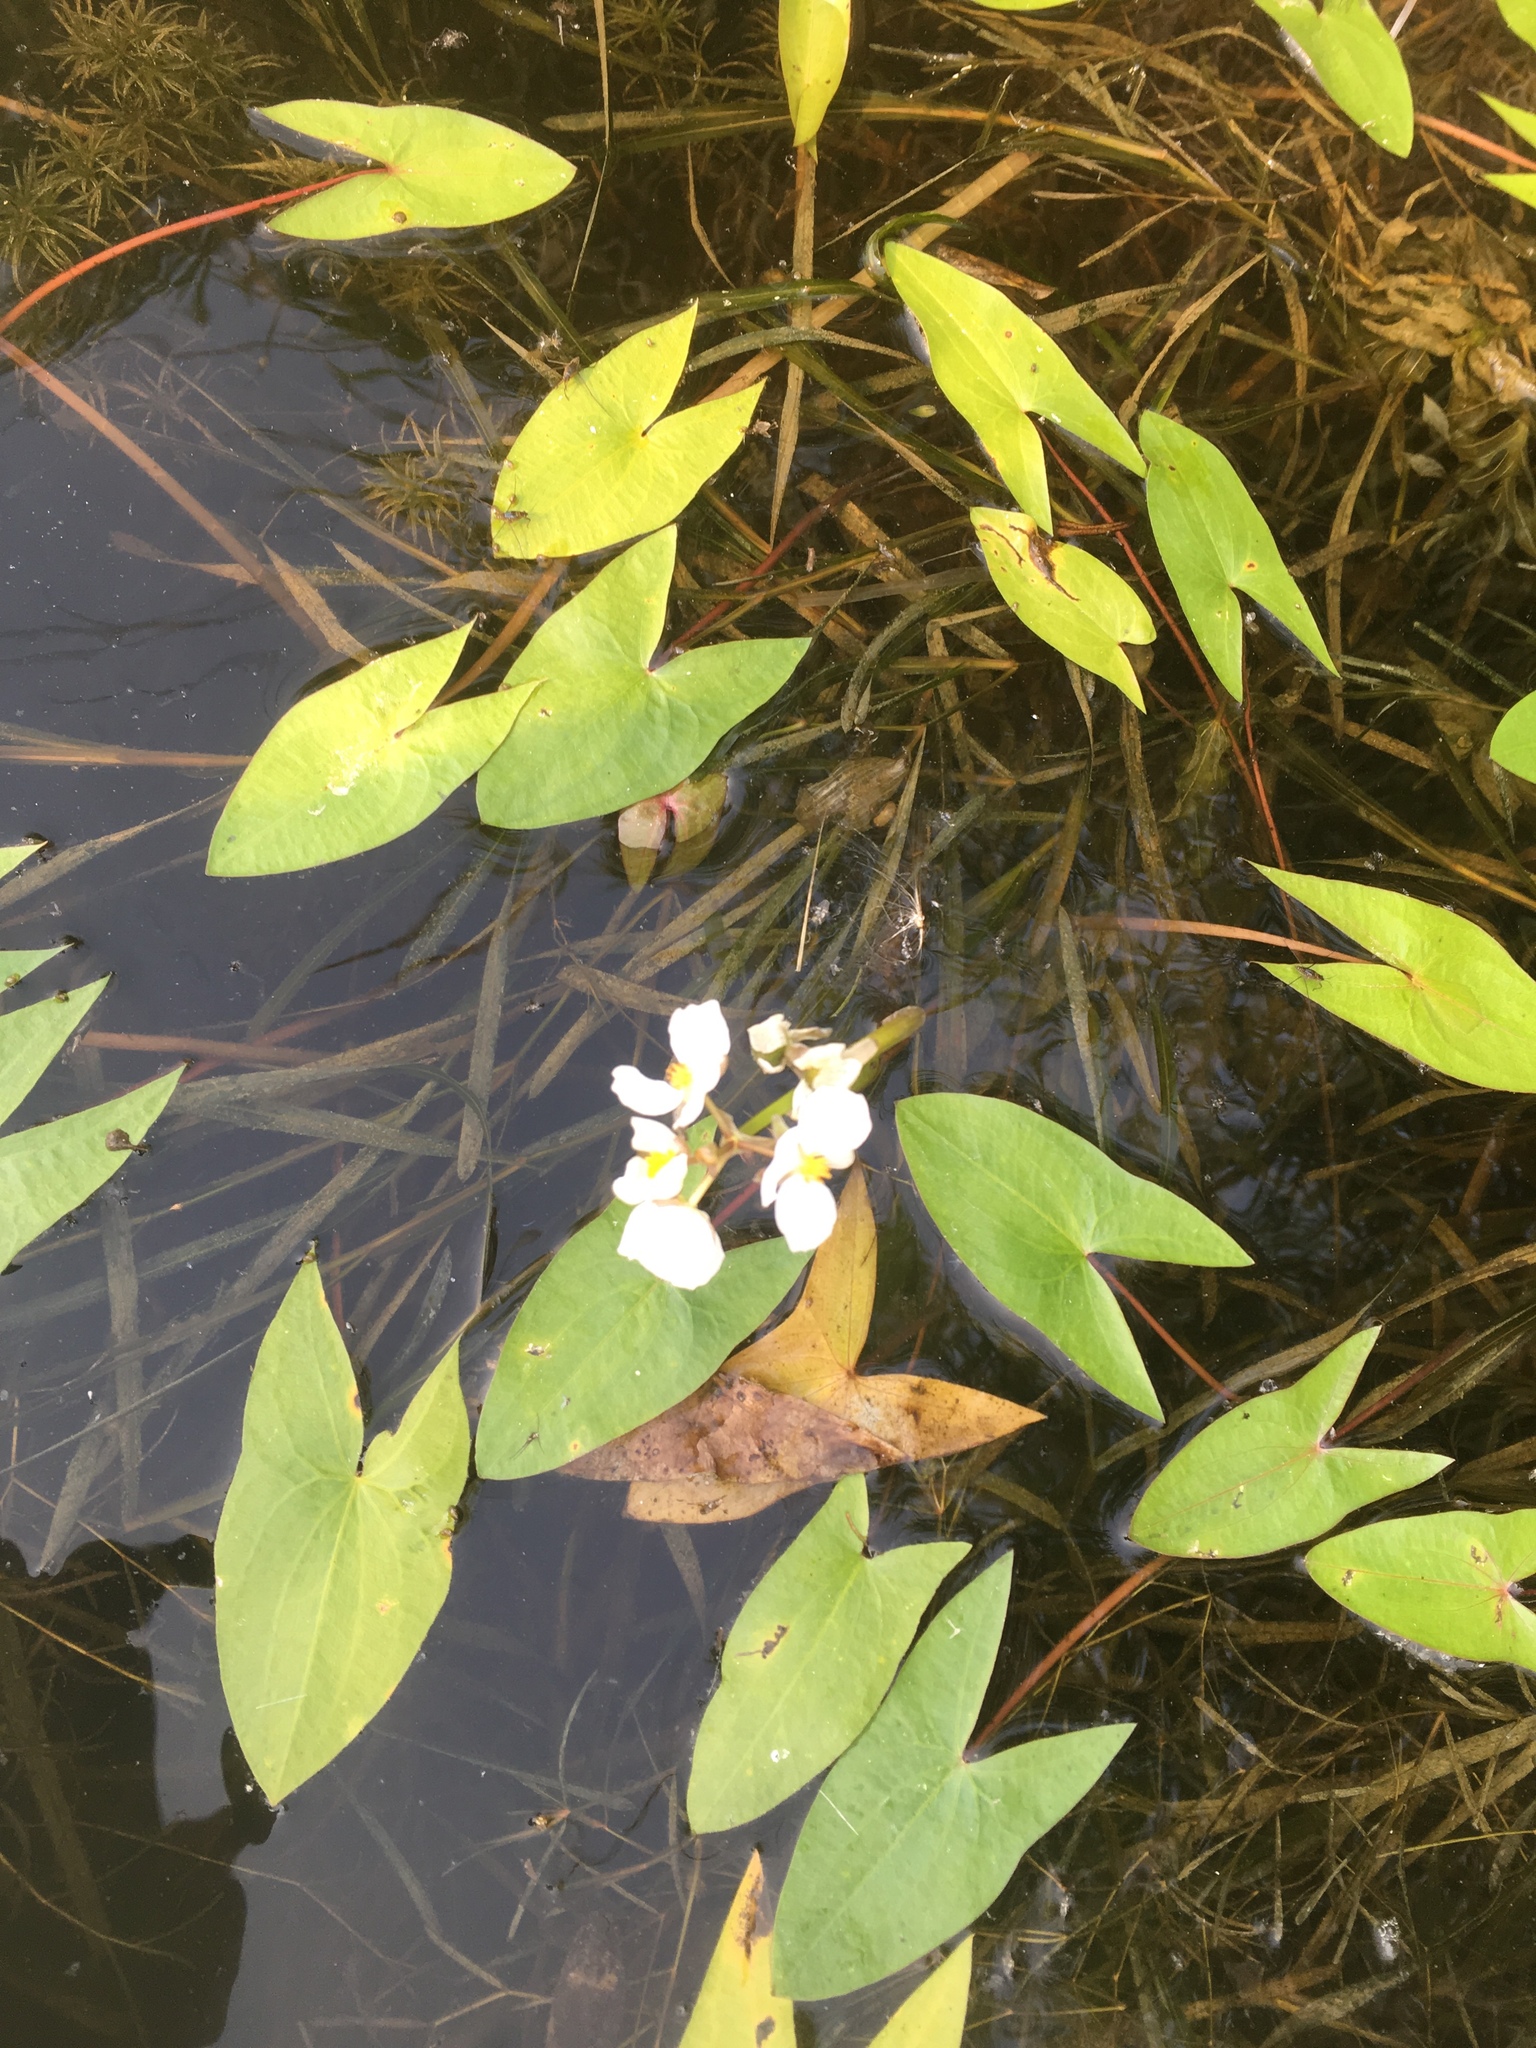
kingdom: Plantae
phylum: Tracheophyta
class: Liliopsida
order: Alismatales
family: Alismataceae
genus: Sagittaria
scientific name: Sagittaria cuneata
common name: Northern arrowhead
